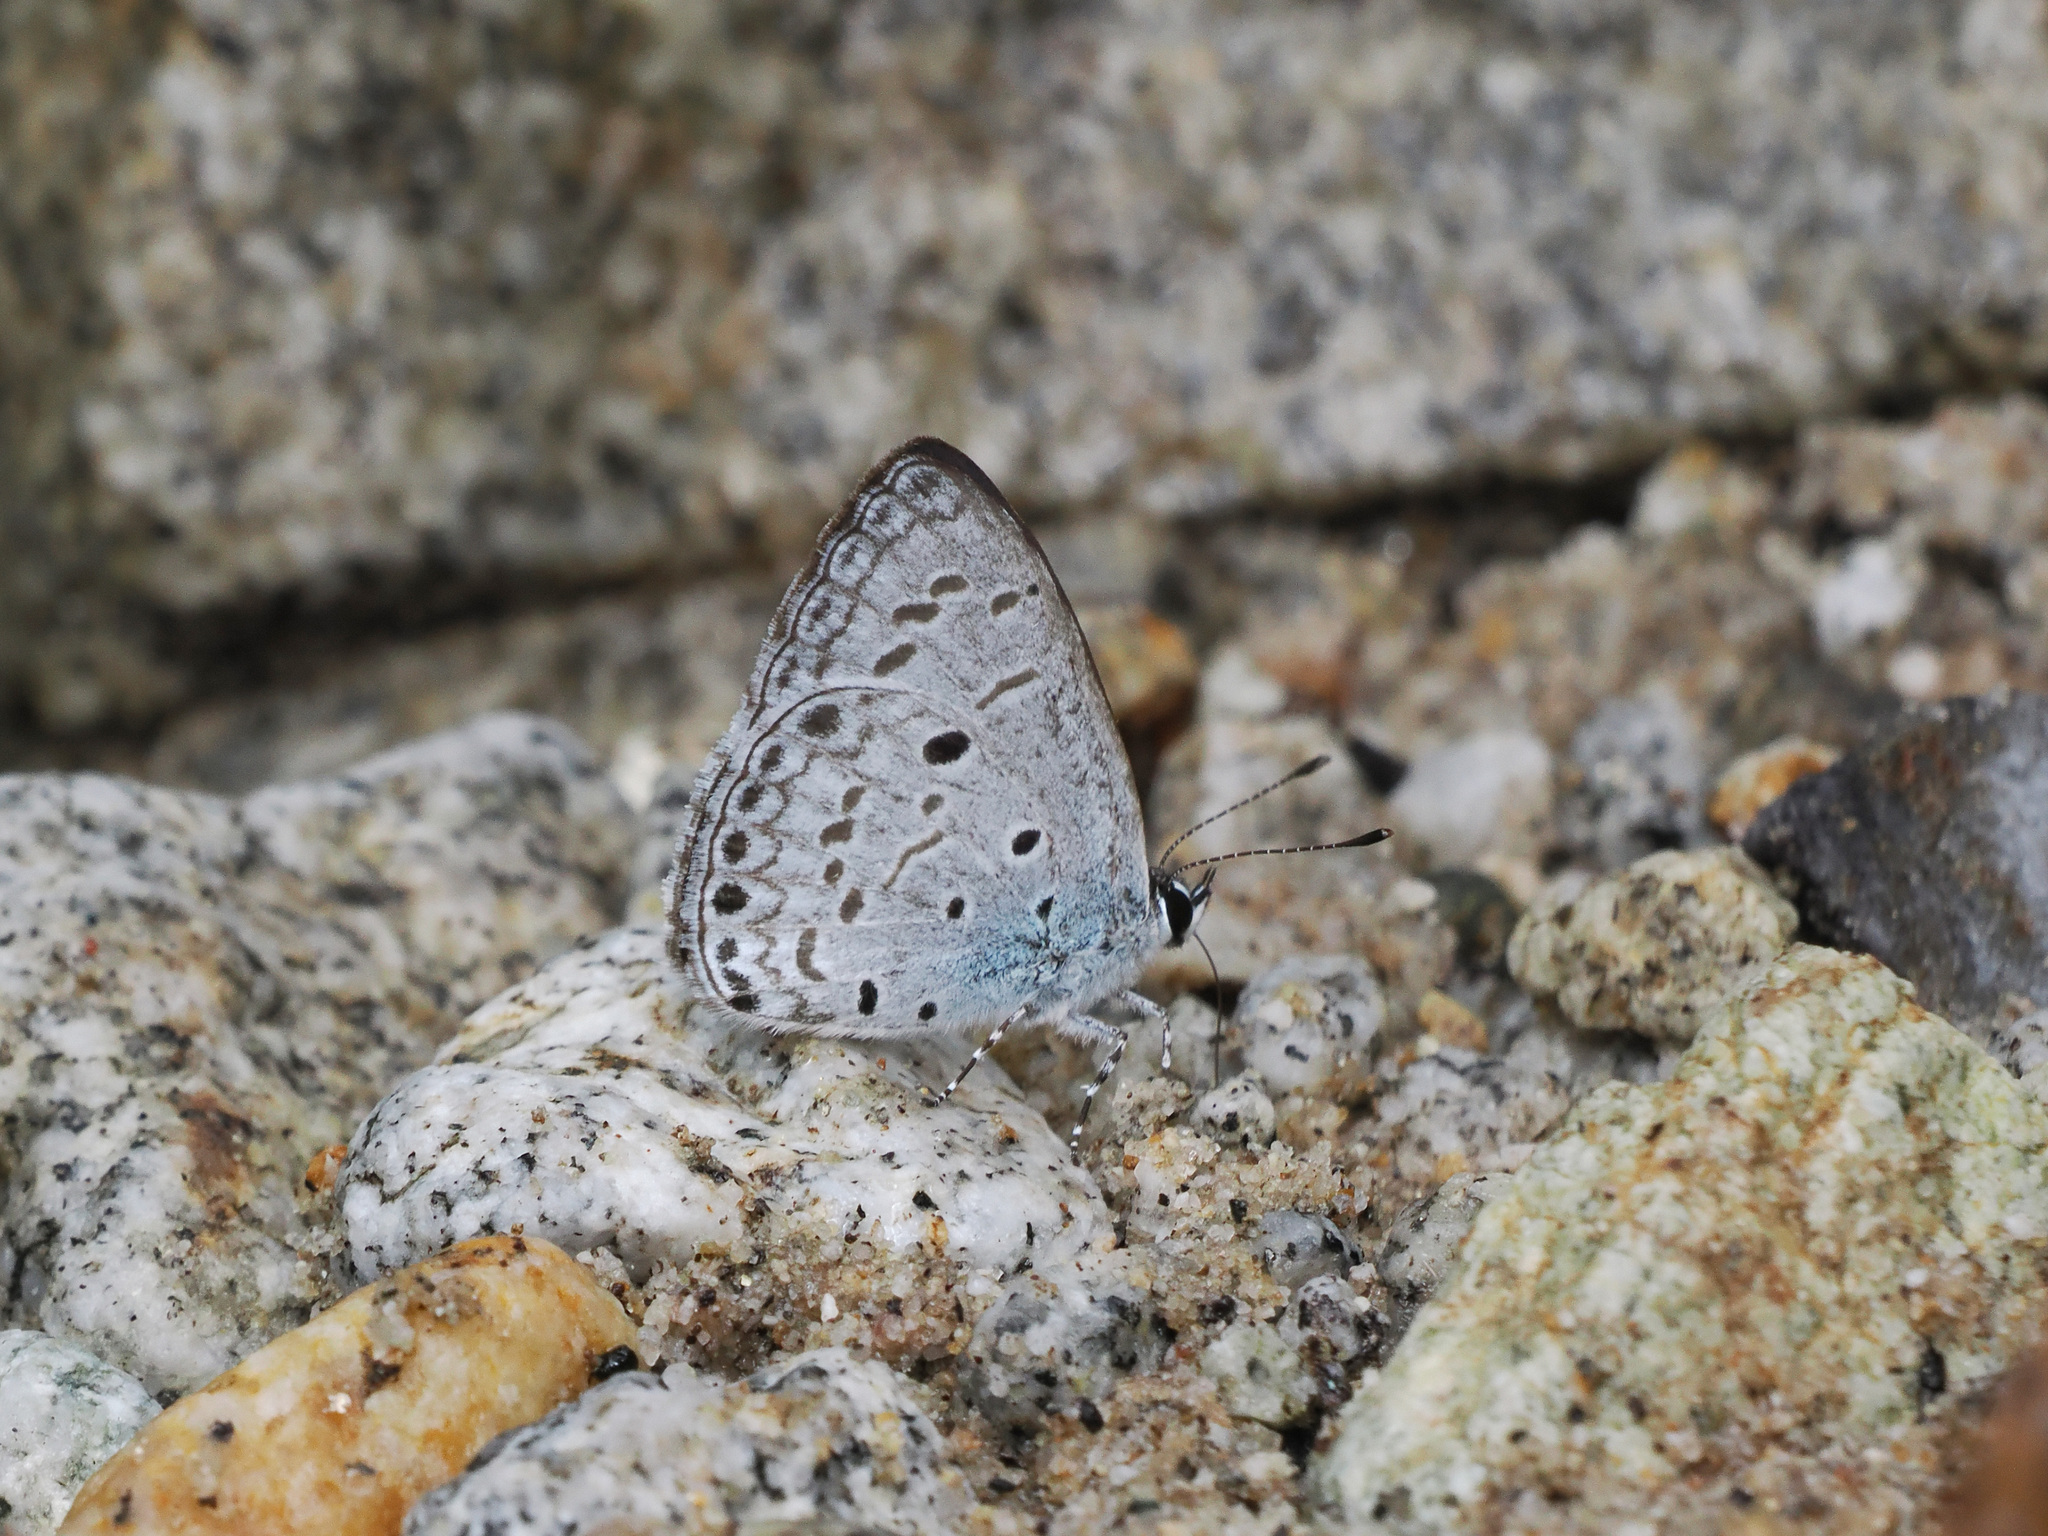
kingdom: Animalia
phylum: Arthropoda
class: Insecta
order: Lepidoptera
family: Lycaenidae
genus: Acytolepis
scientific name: Acytolepis
